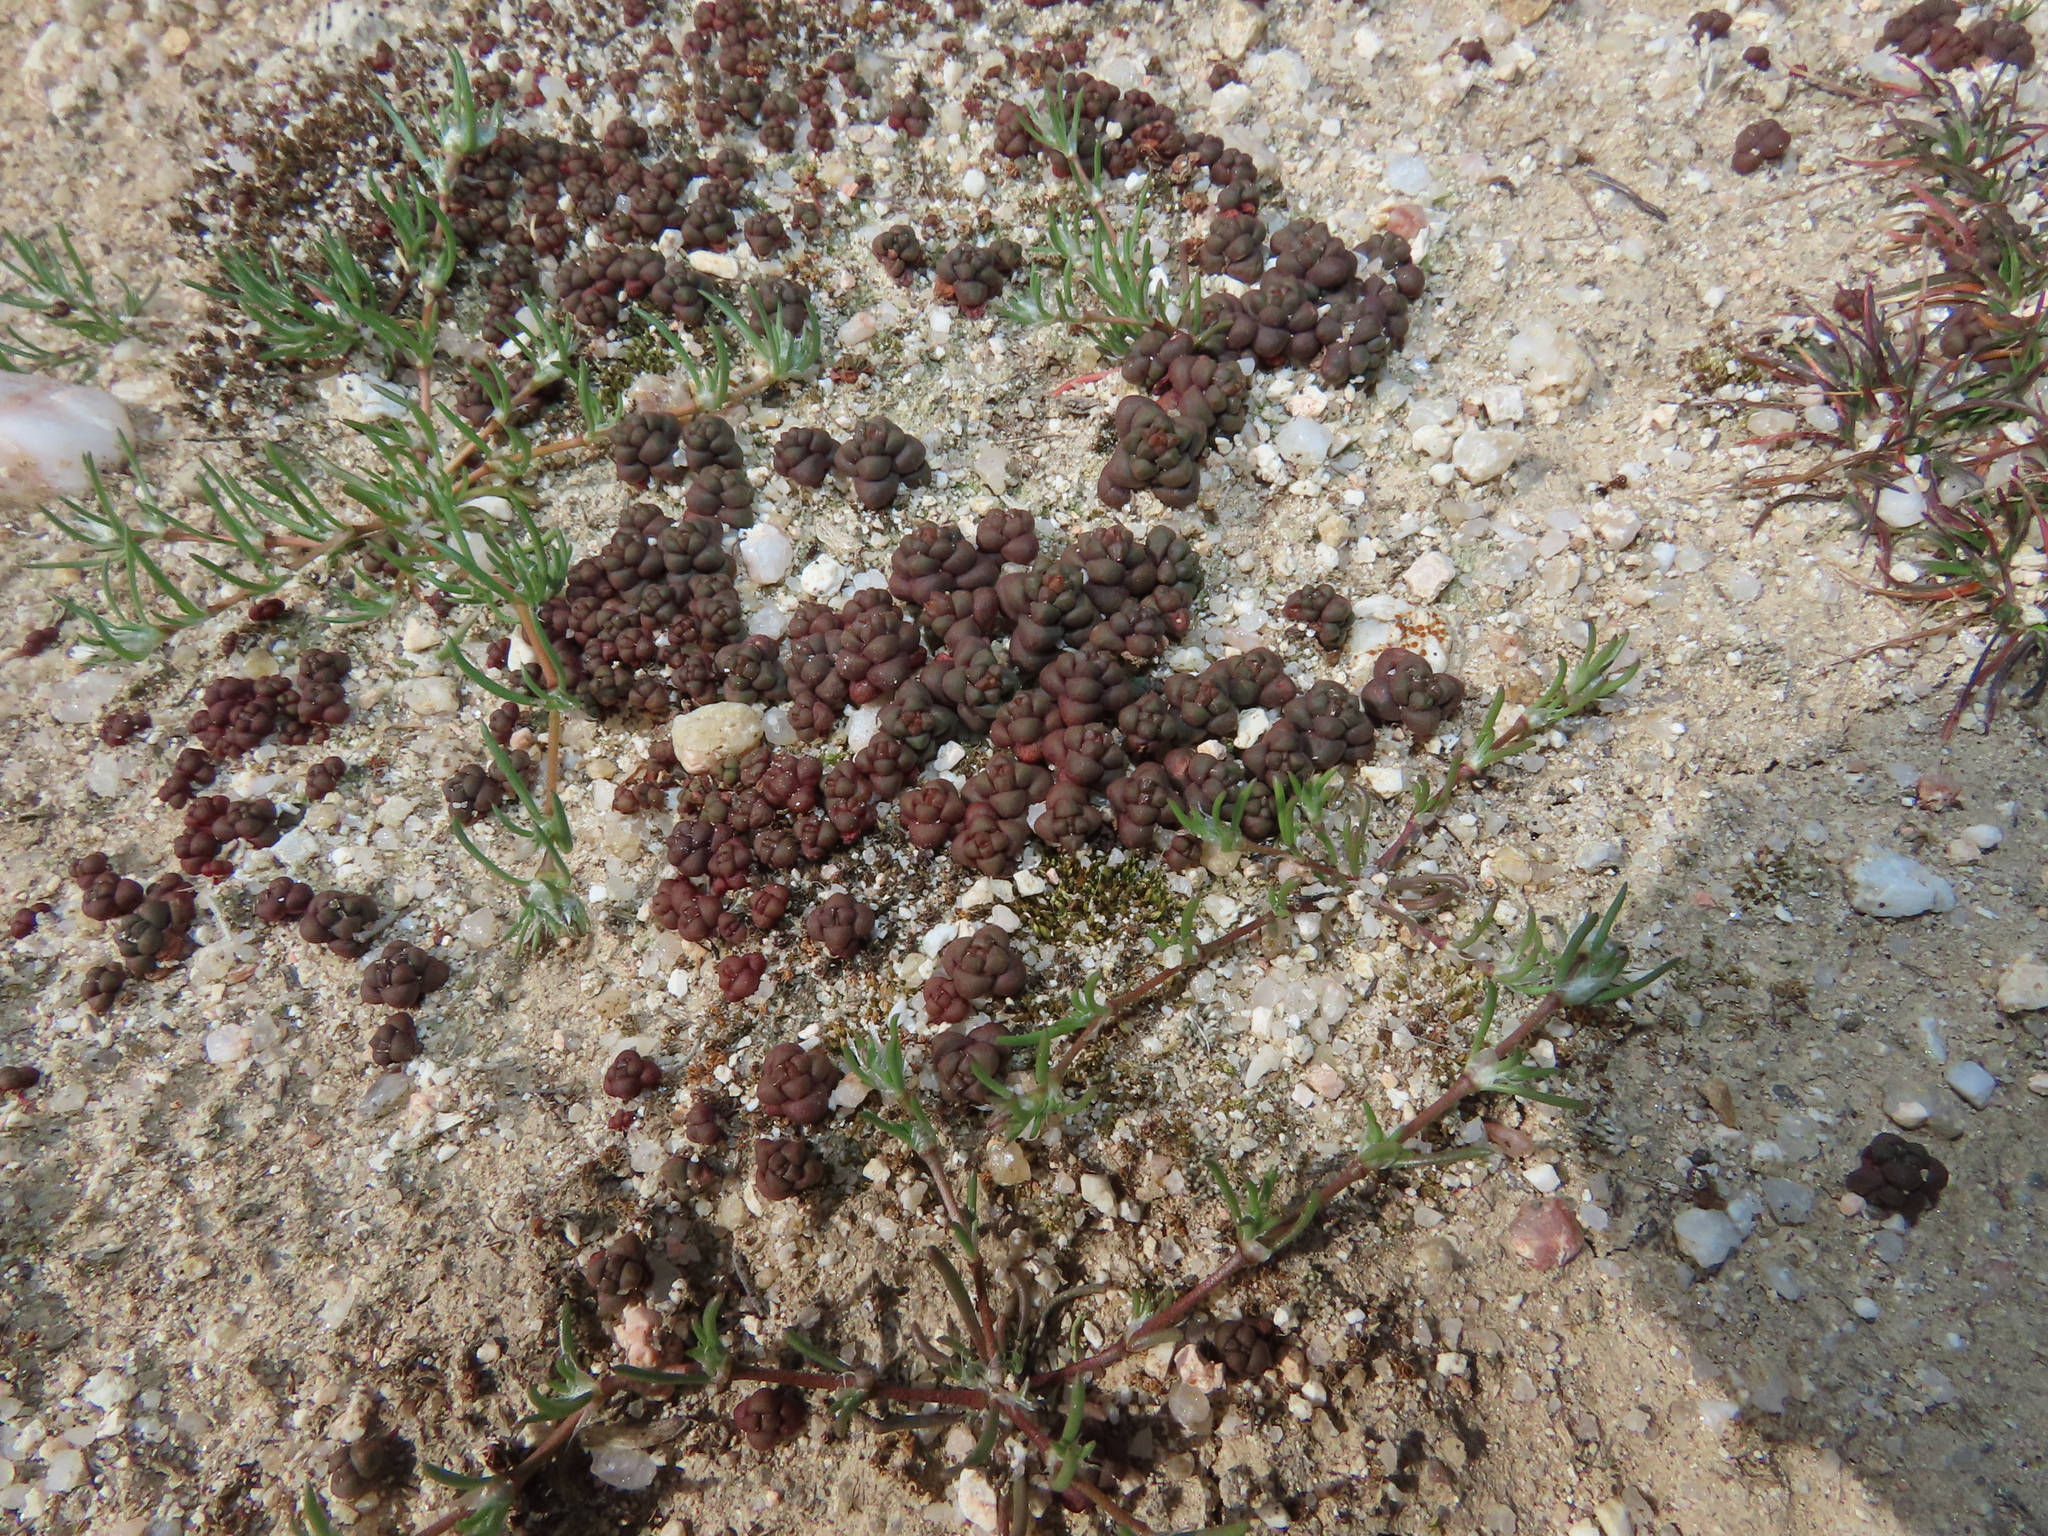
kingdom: Plantae
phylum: Tracheophyta
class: Magnoliopsida
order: Saxifragales
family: Crassulaceae
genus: Sedum
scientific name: Sedum andegavense
